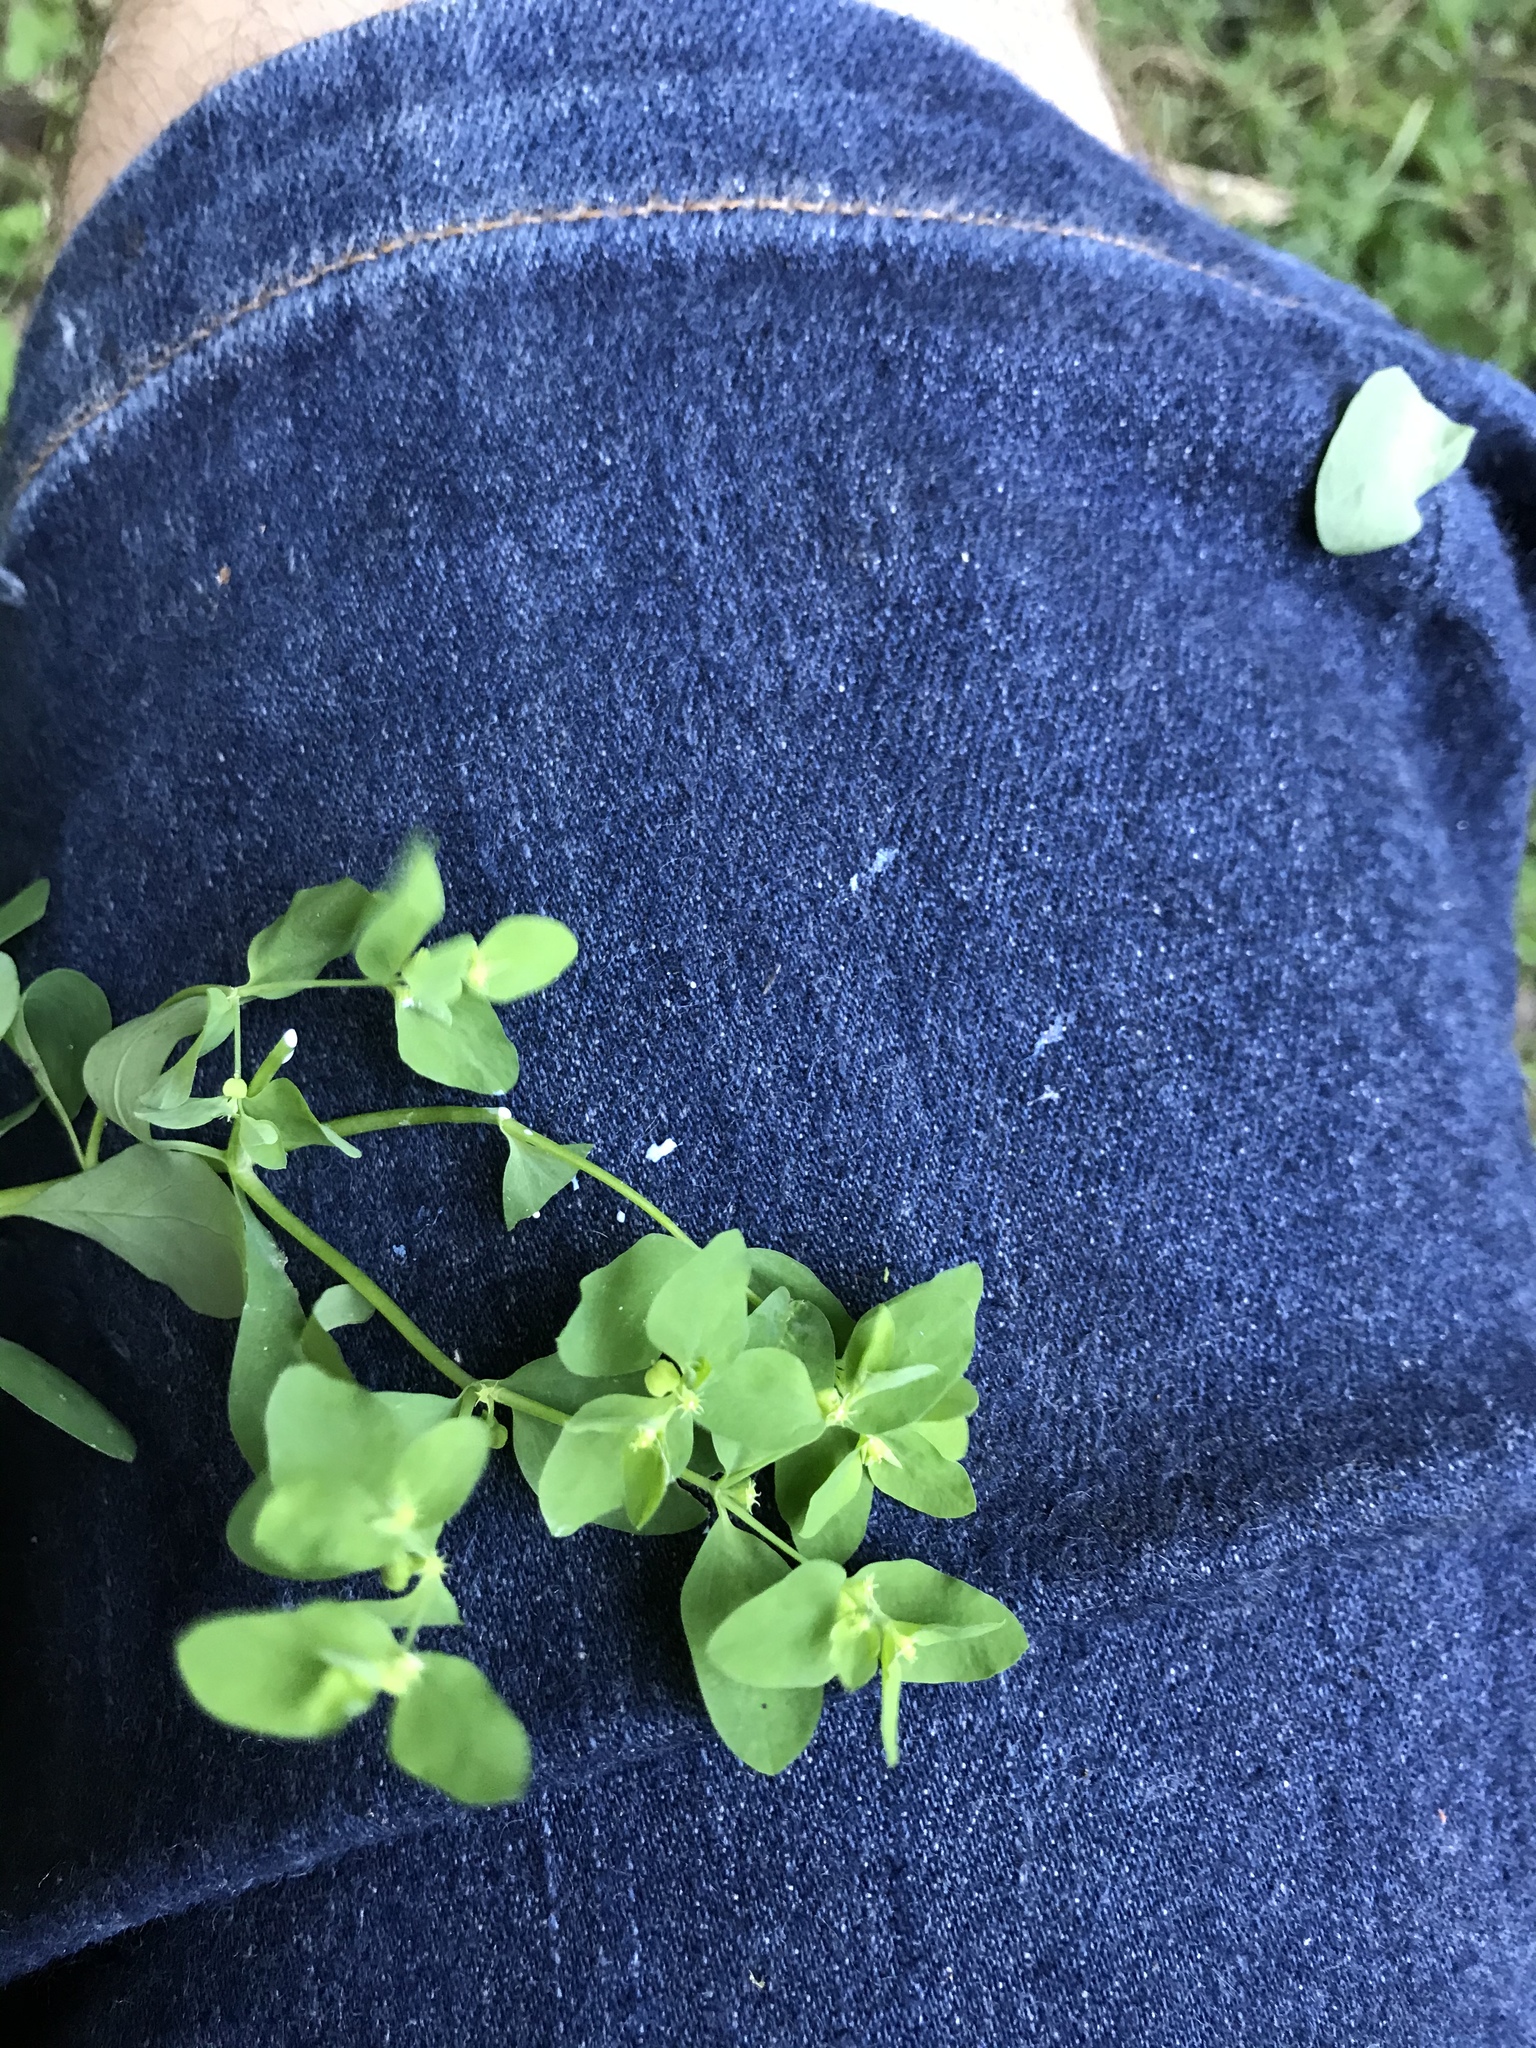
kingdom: Plantae
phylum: Tracheophyta
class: Magnoliopsida
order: Malpighiales
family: Euphorbiaceae
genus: Euphorbia
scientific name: Euphorbia peplus
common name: Petty spurge
